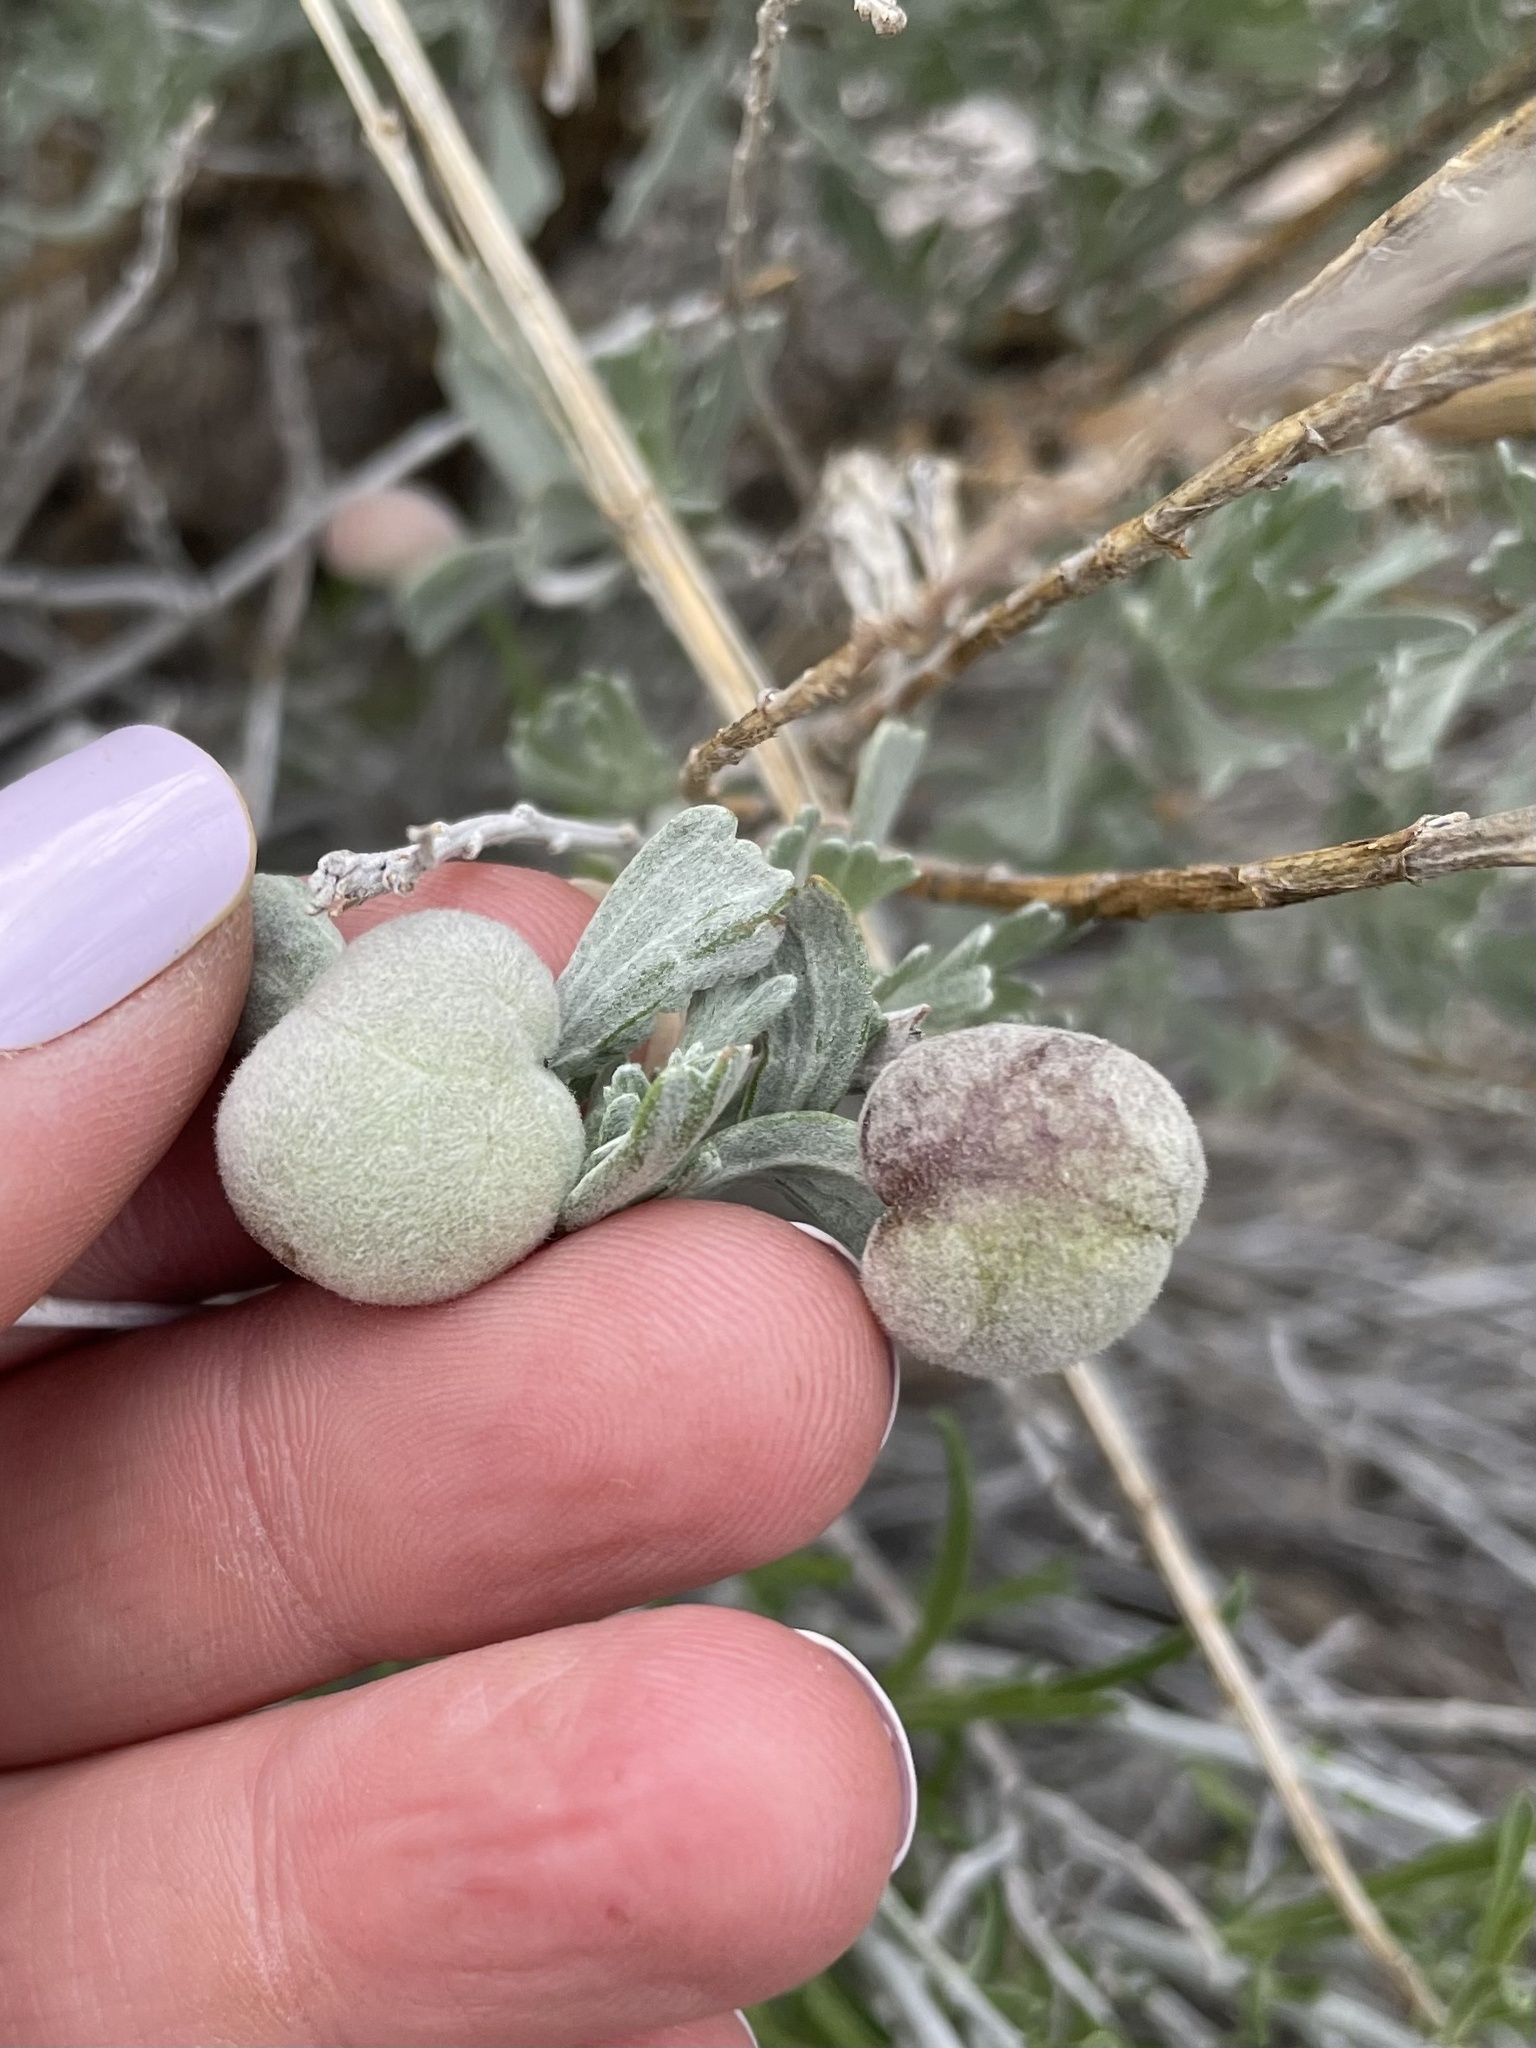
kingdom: Animalia
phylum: Arthropoda
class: Insecta
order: Diptera
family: Cecidomyiidae
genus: Rhopalomyia
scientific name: Rhopalomyia pomum
